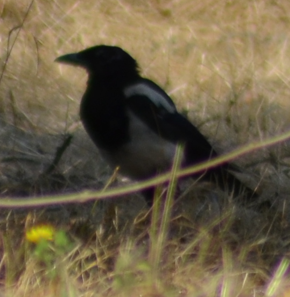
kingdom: Animalia
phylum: Chordata
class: Aves
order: Passeriformes
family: Corvidae
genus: Pica
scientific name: Pica pica
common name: Eurasian magpie
